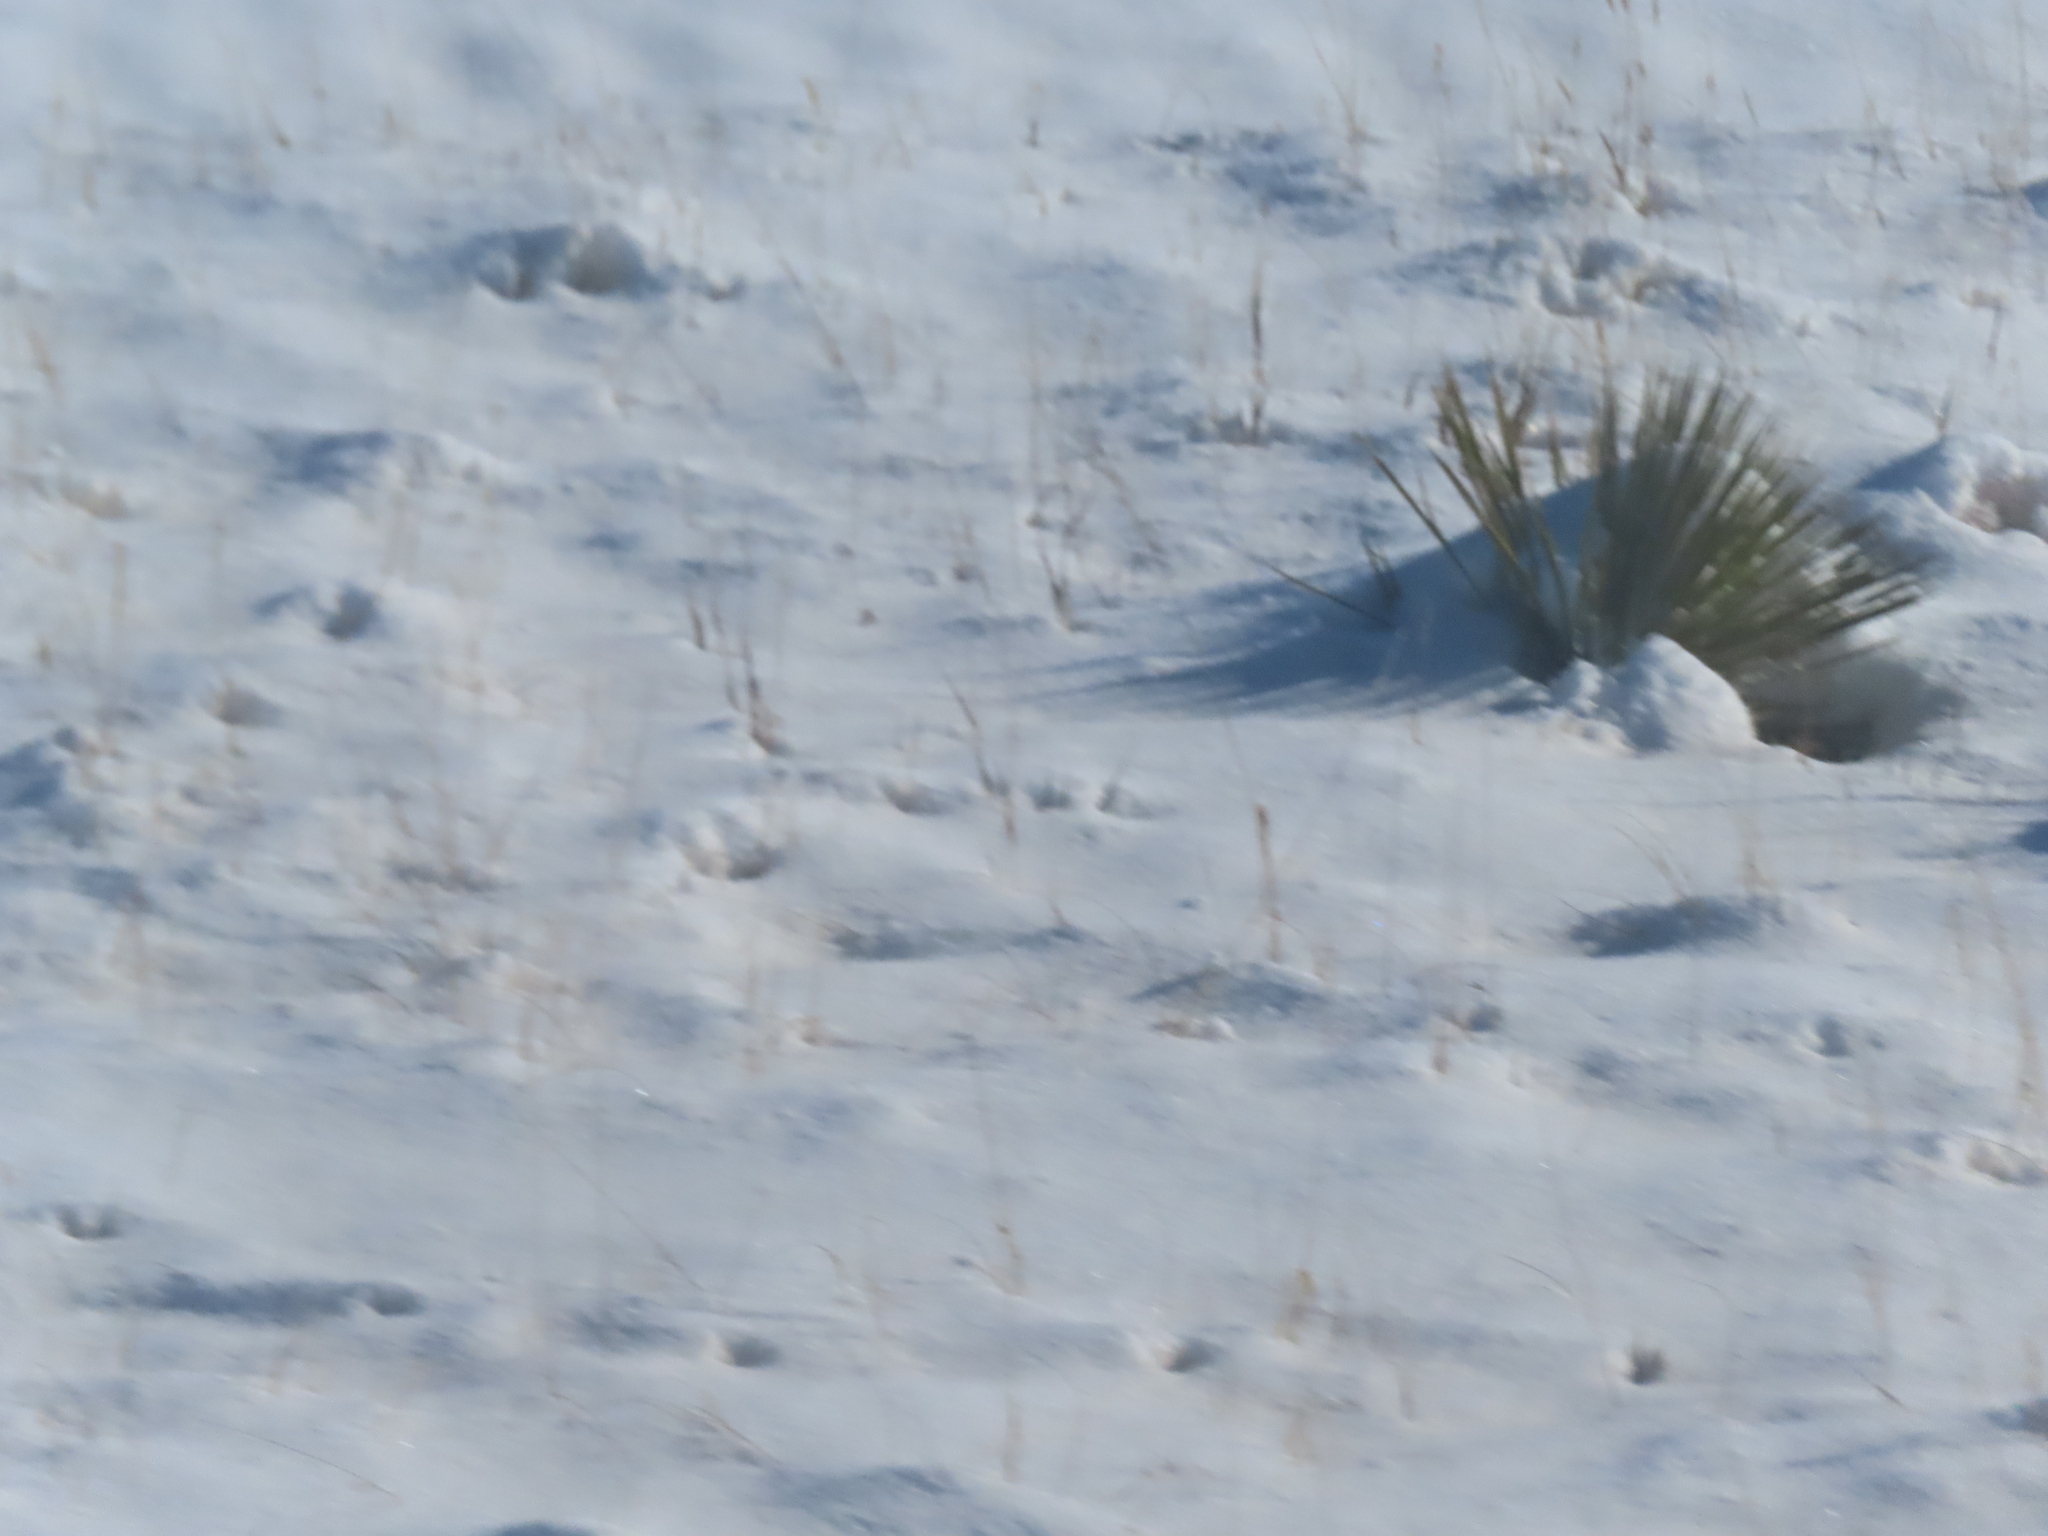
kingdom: Plantae
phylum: Tracheophyta
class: Liliopsida
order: Asparagales
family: Asparagaceae
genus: Yucca
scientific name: Yucca glauca
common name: Great plains yucca
